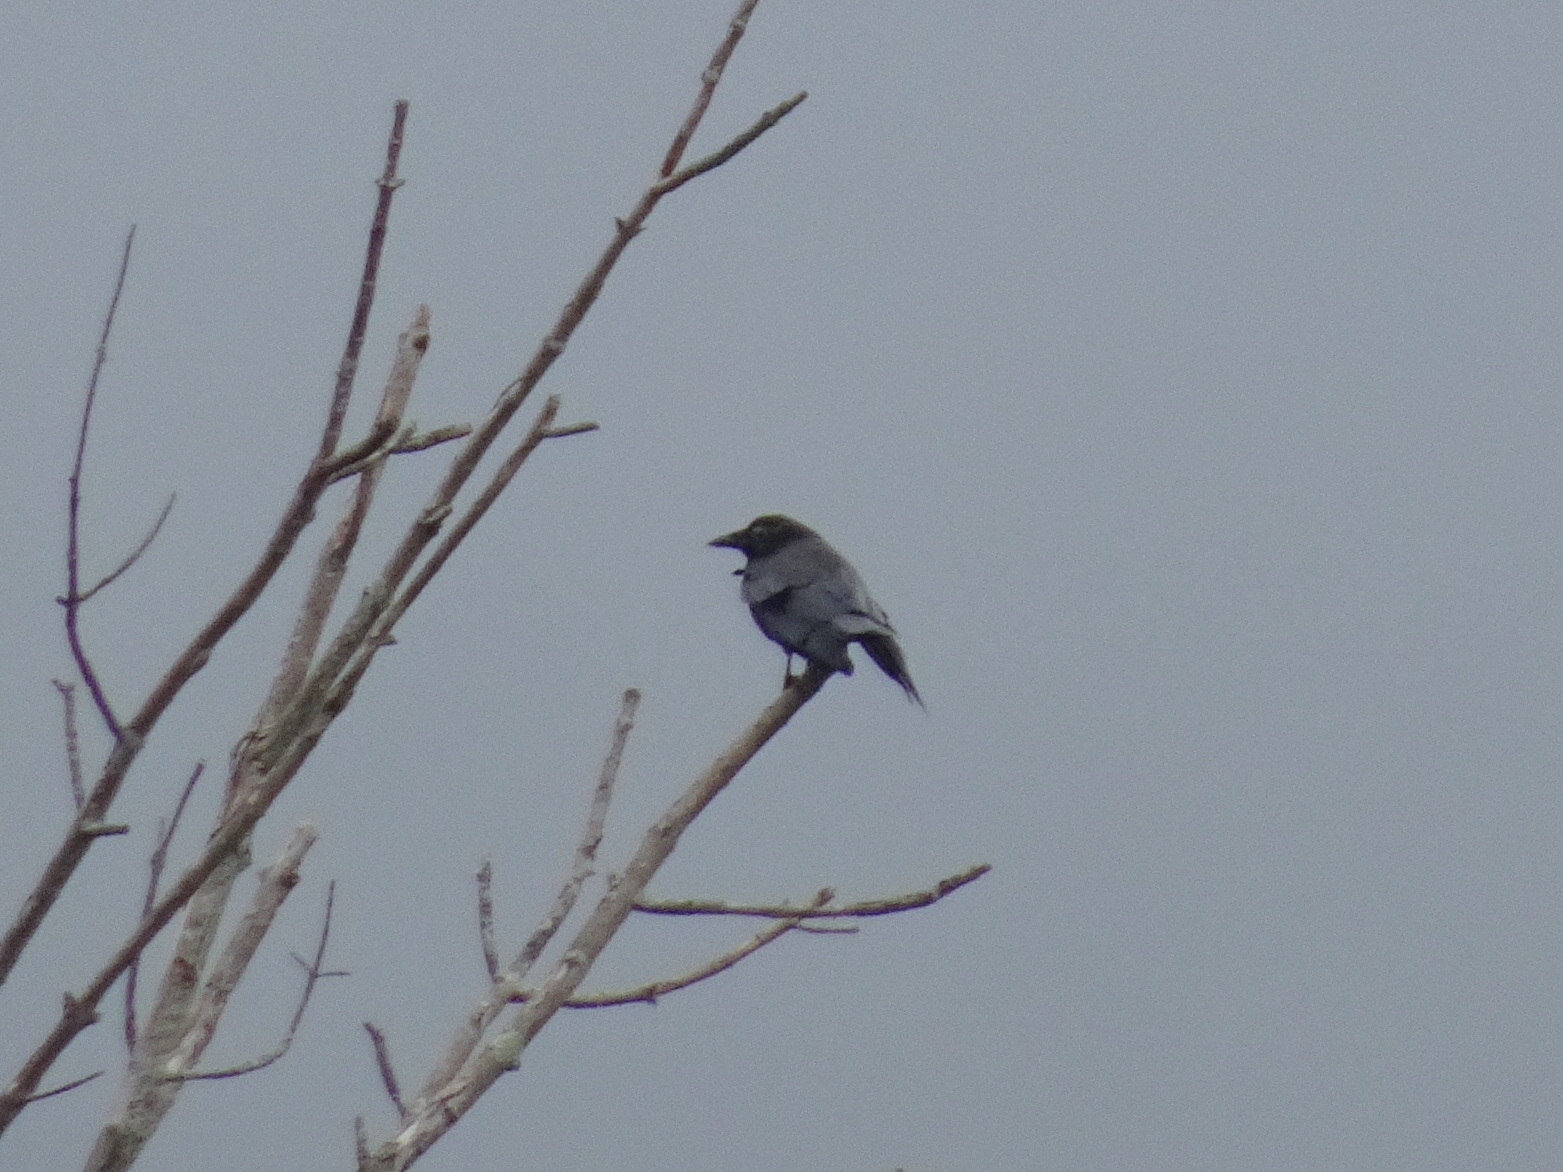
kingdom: Animalia
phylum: Chordata
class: Aves
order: Passeriformes
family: Corvidae
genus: Corvus
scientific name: Corvus brachyrhynchos
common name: American crow
